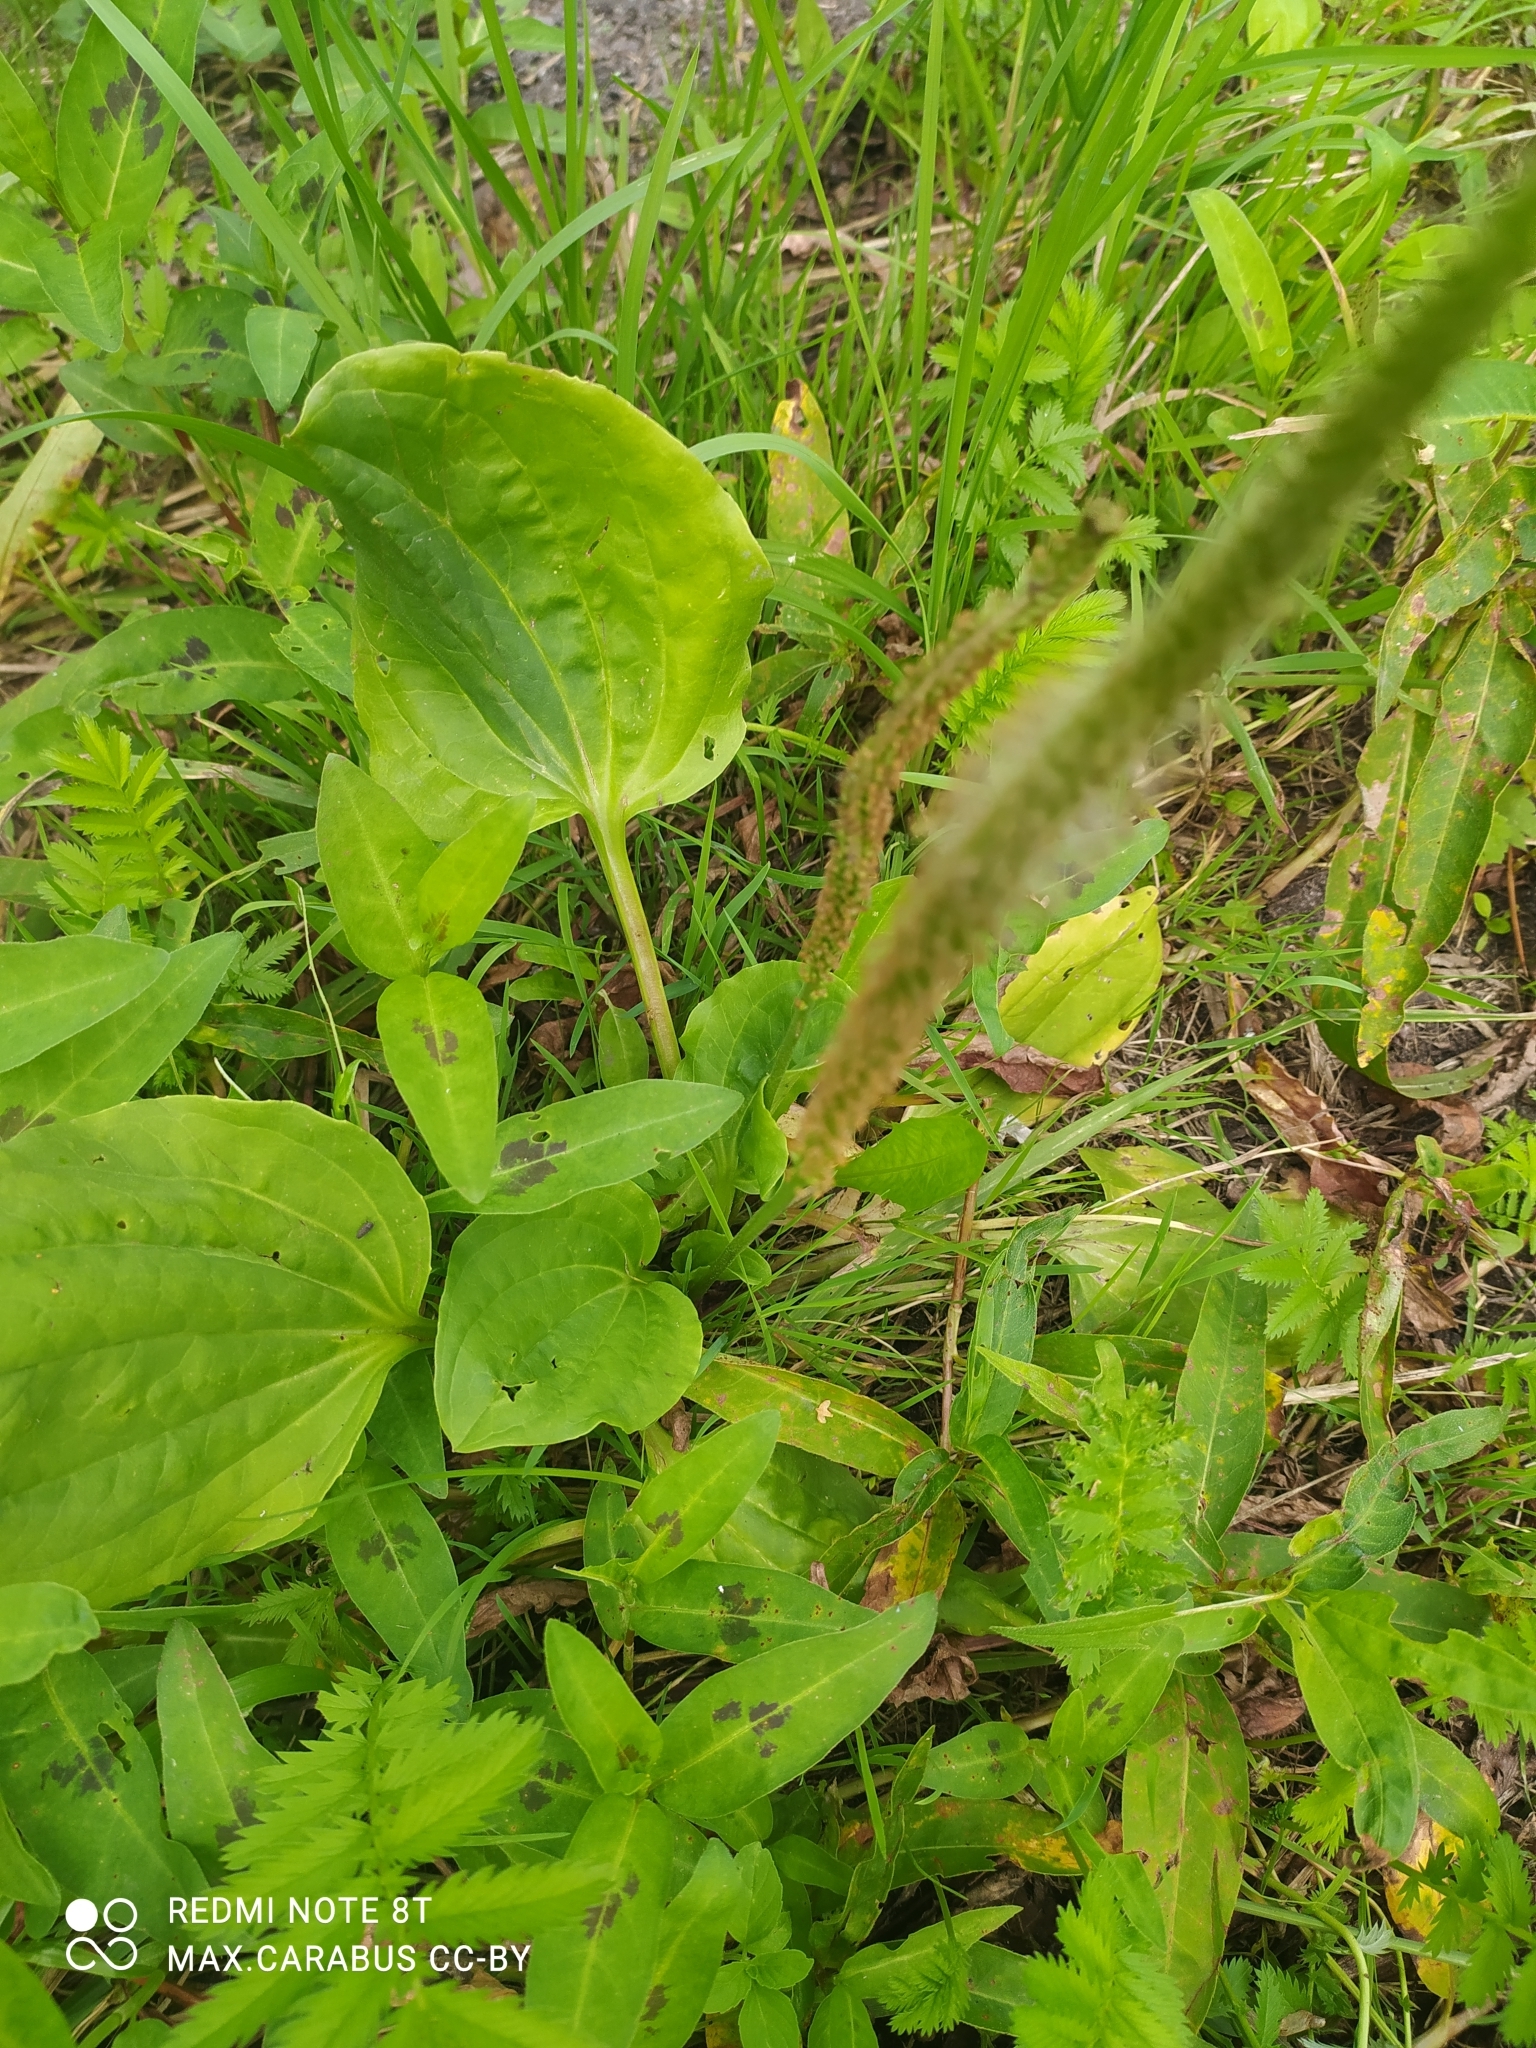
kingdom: Plantae
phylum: Tracheophyta
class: Magnoliopsida
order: Lamiales
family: Plantaginaceae
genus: Plantago
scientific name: Plantago major
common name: Common plantain
